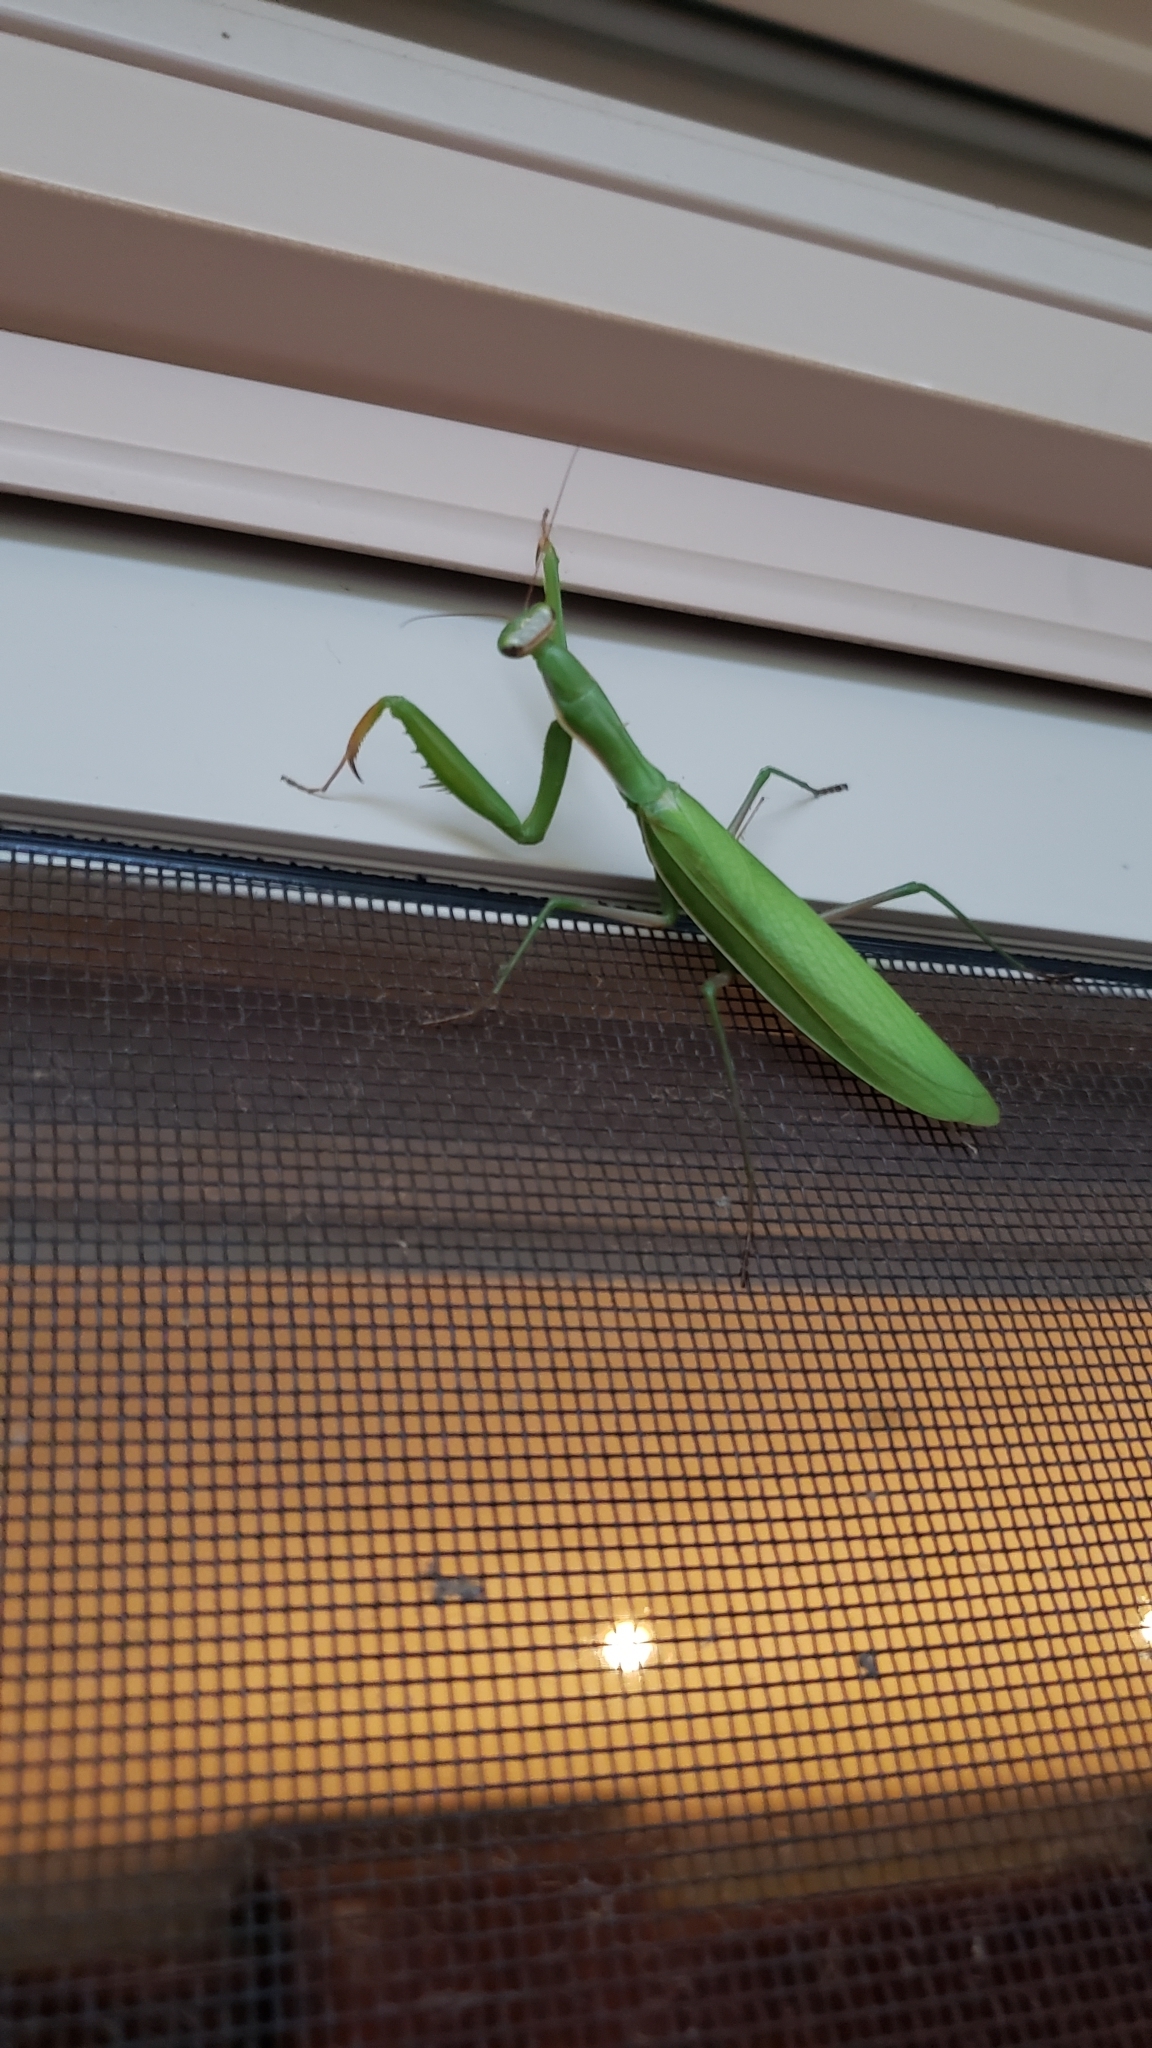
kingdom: Animalia
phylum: Arthropoda
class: Insecta
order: Mantodea
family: Mantidae
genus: Mantis
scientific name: Mantis religiosa
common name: Praying mantis
